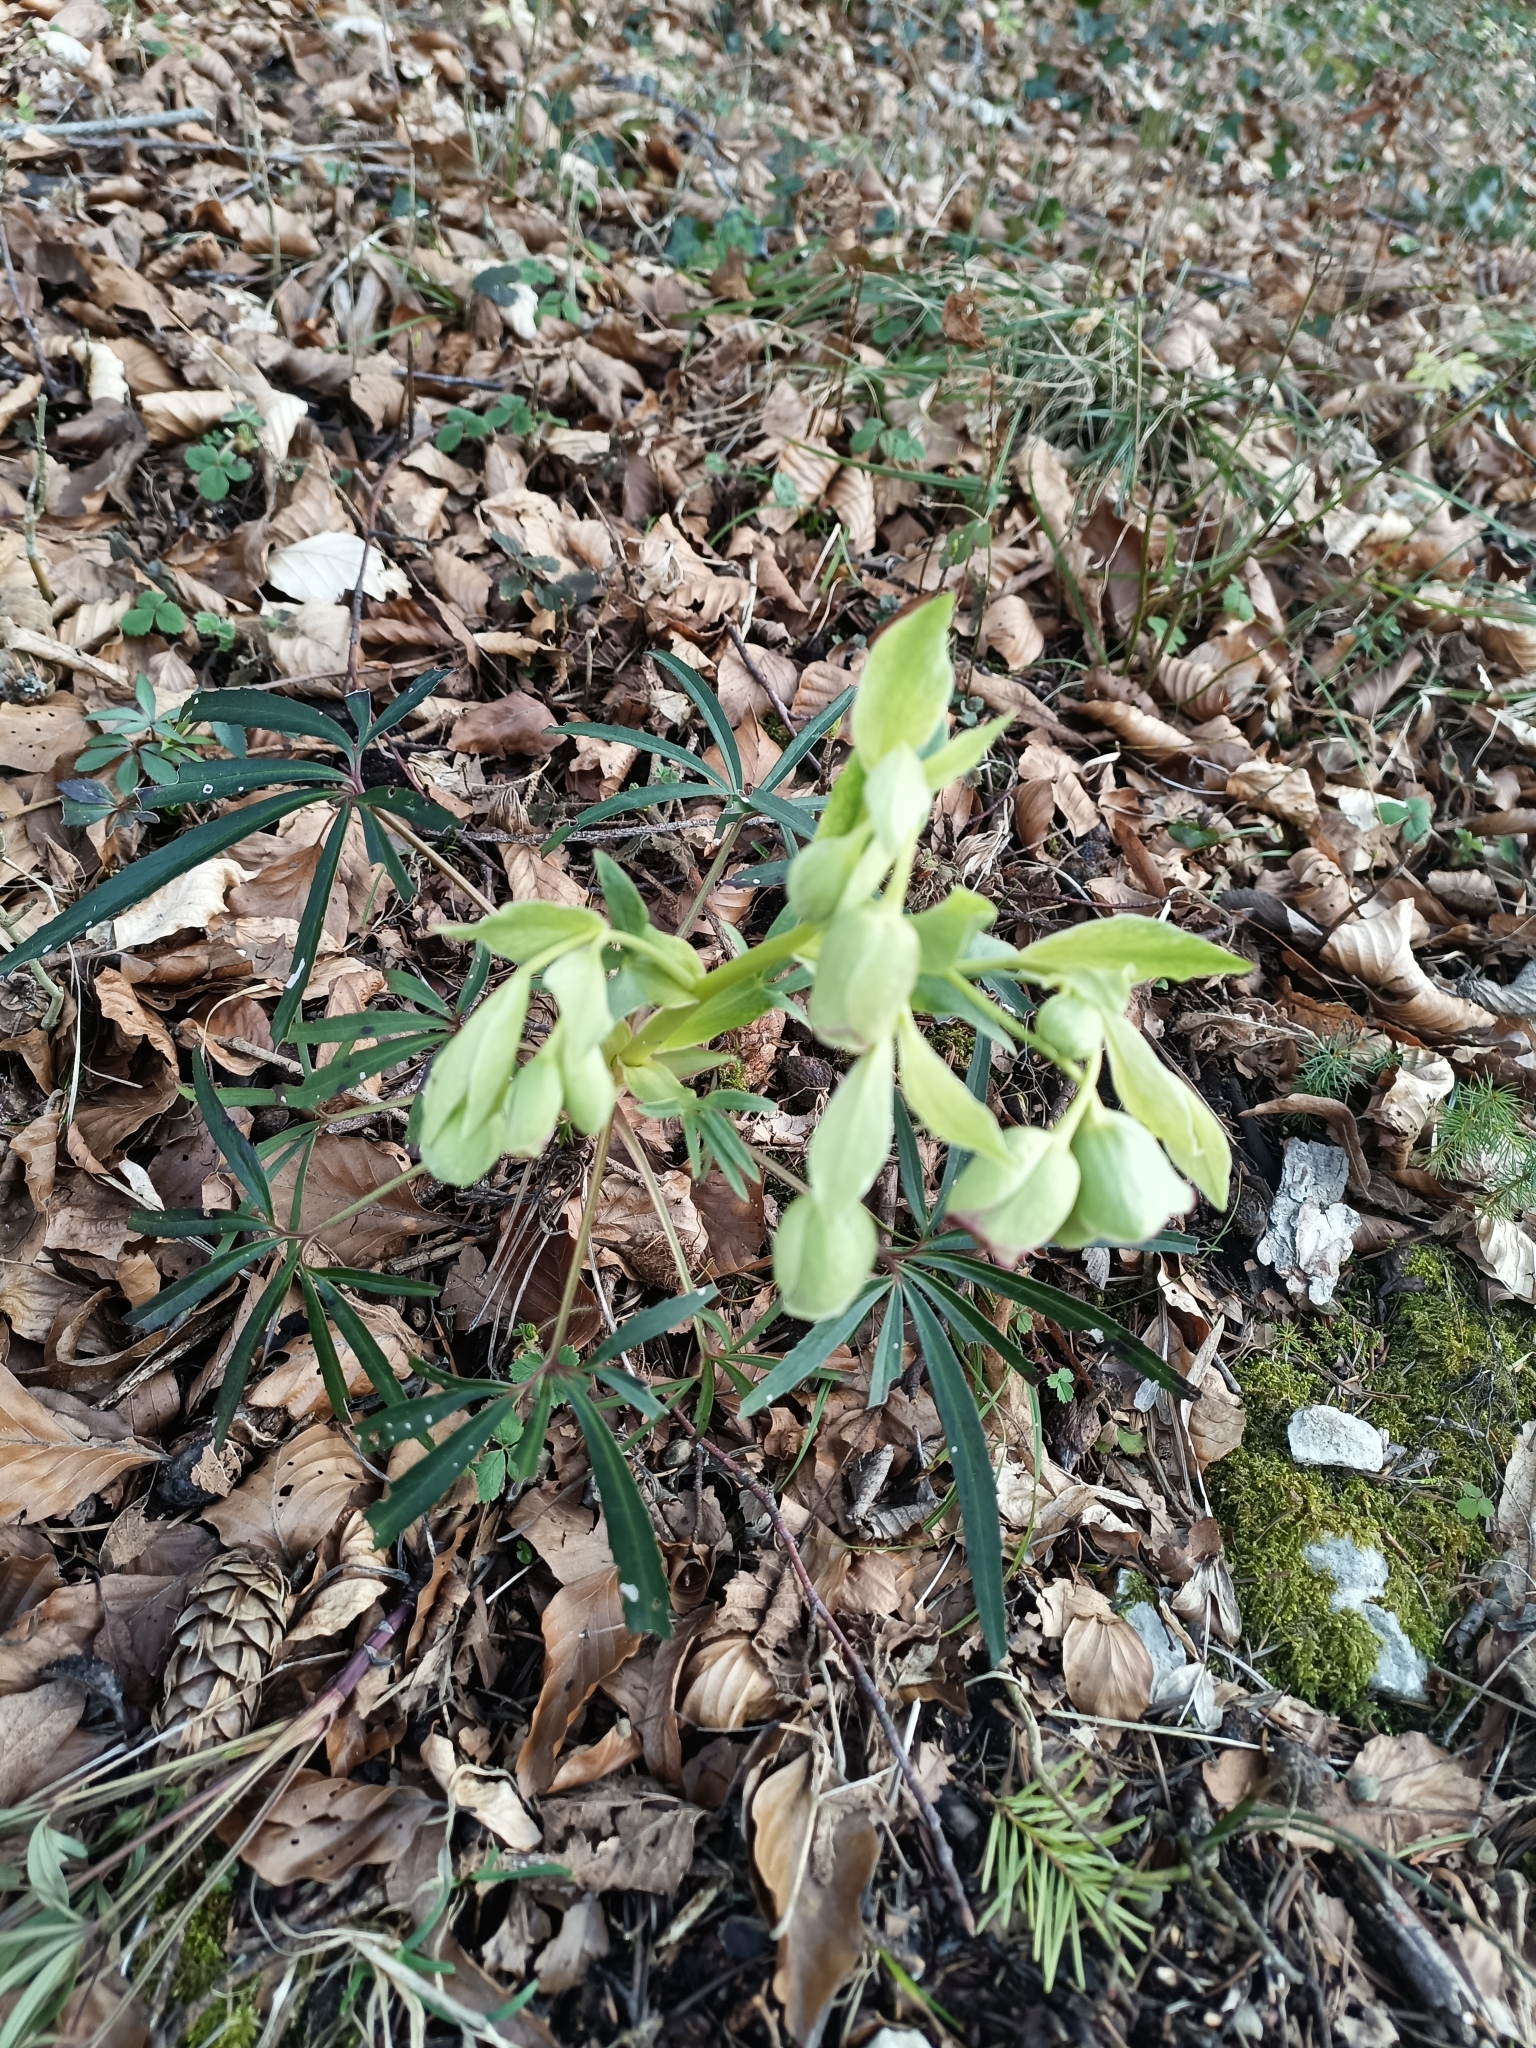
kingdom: Plantae
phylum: Tracheophyta
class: Magnoliopsida
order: Ranunculales
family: Ranunculaceae
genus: Helleborus
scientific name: Helleborus foetidus
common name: Stinking hellebore
